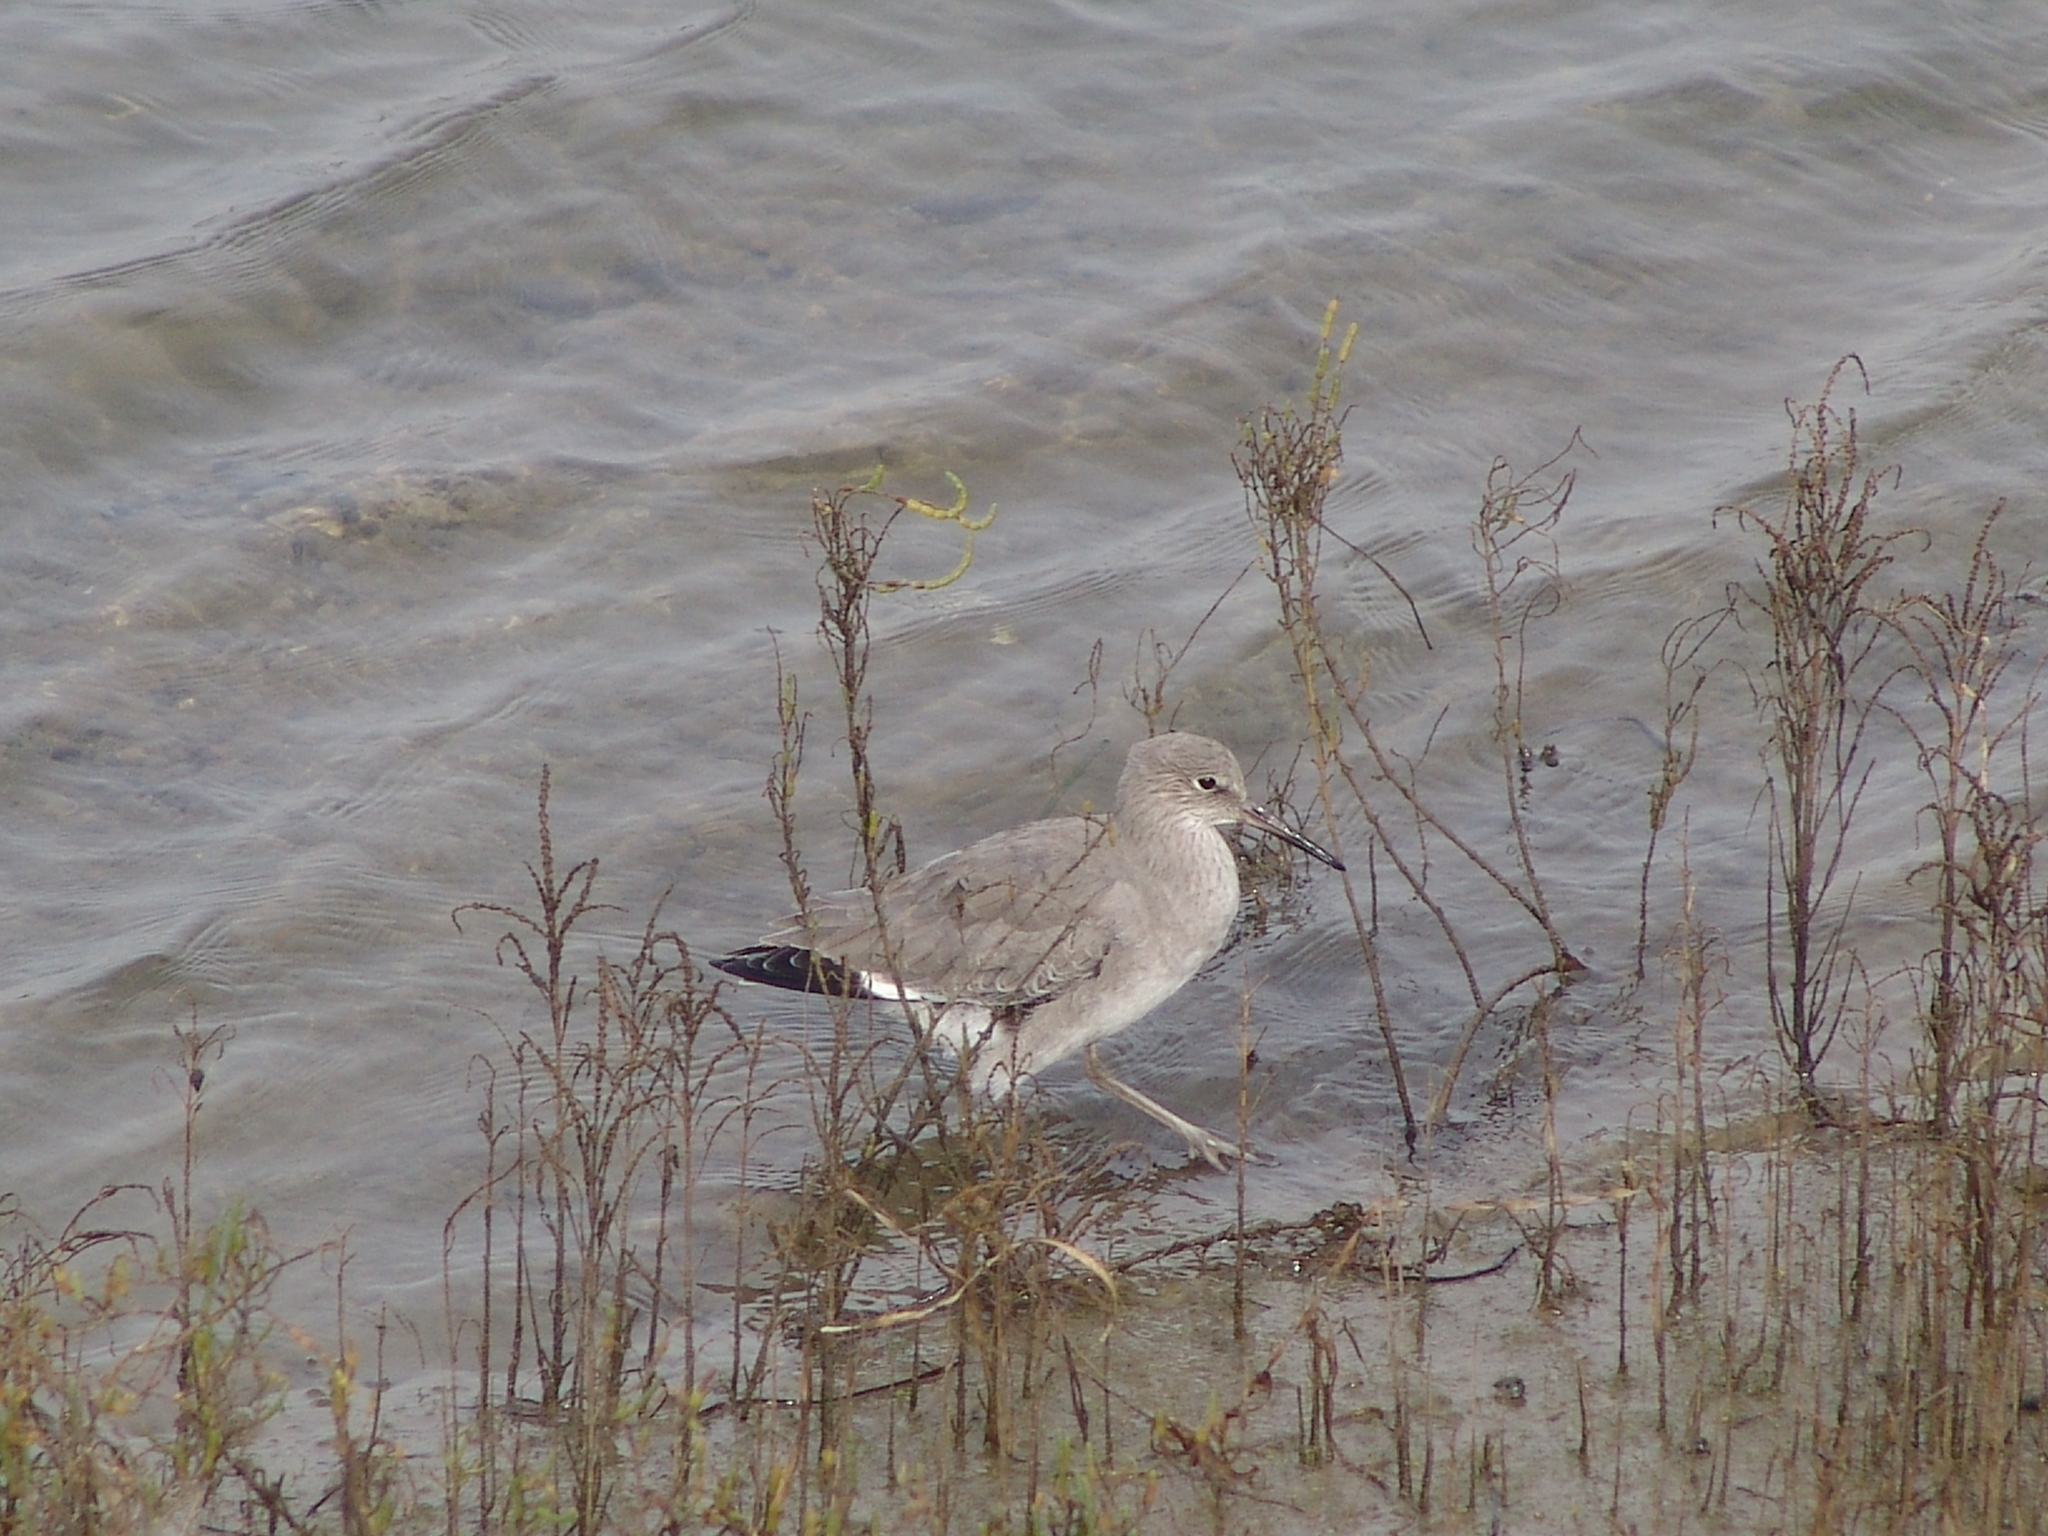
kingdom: Animalia
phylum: Chordata
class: Aves
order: Charadriiformes
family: Scolopacidae
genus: Tringa
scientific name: Tringa semipalmata
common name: Willet
